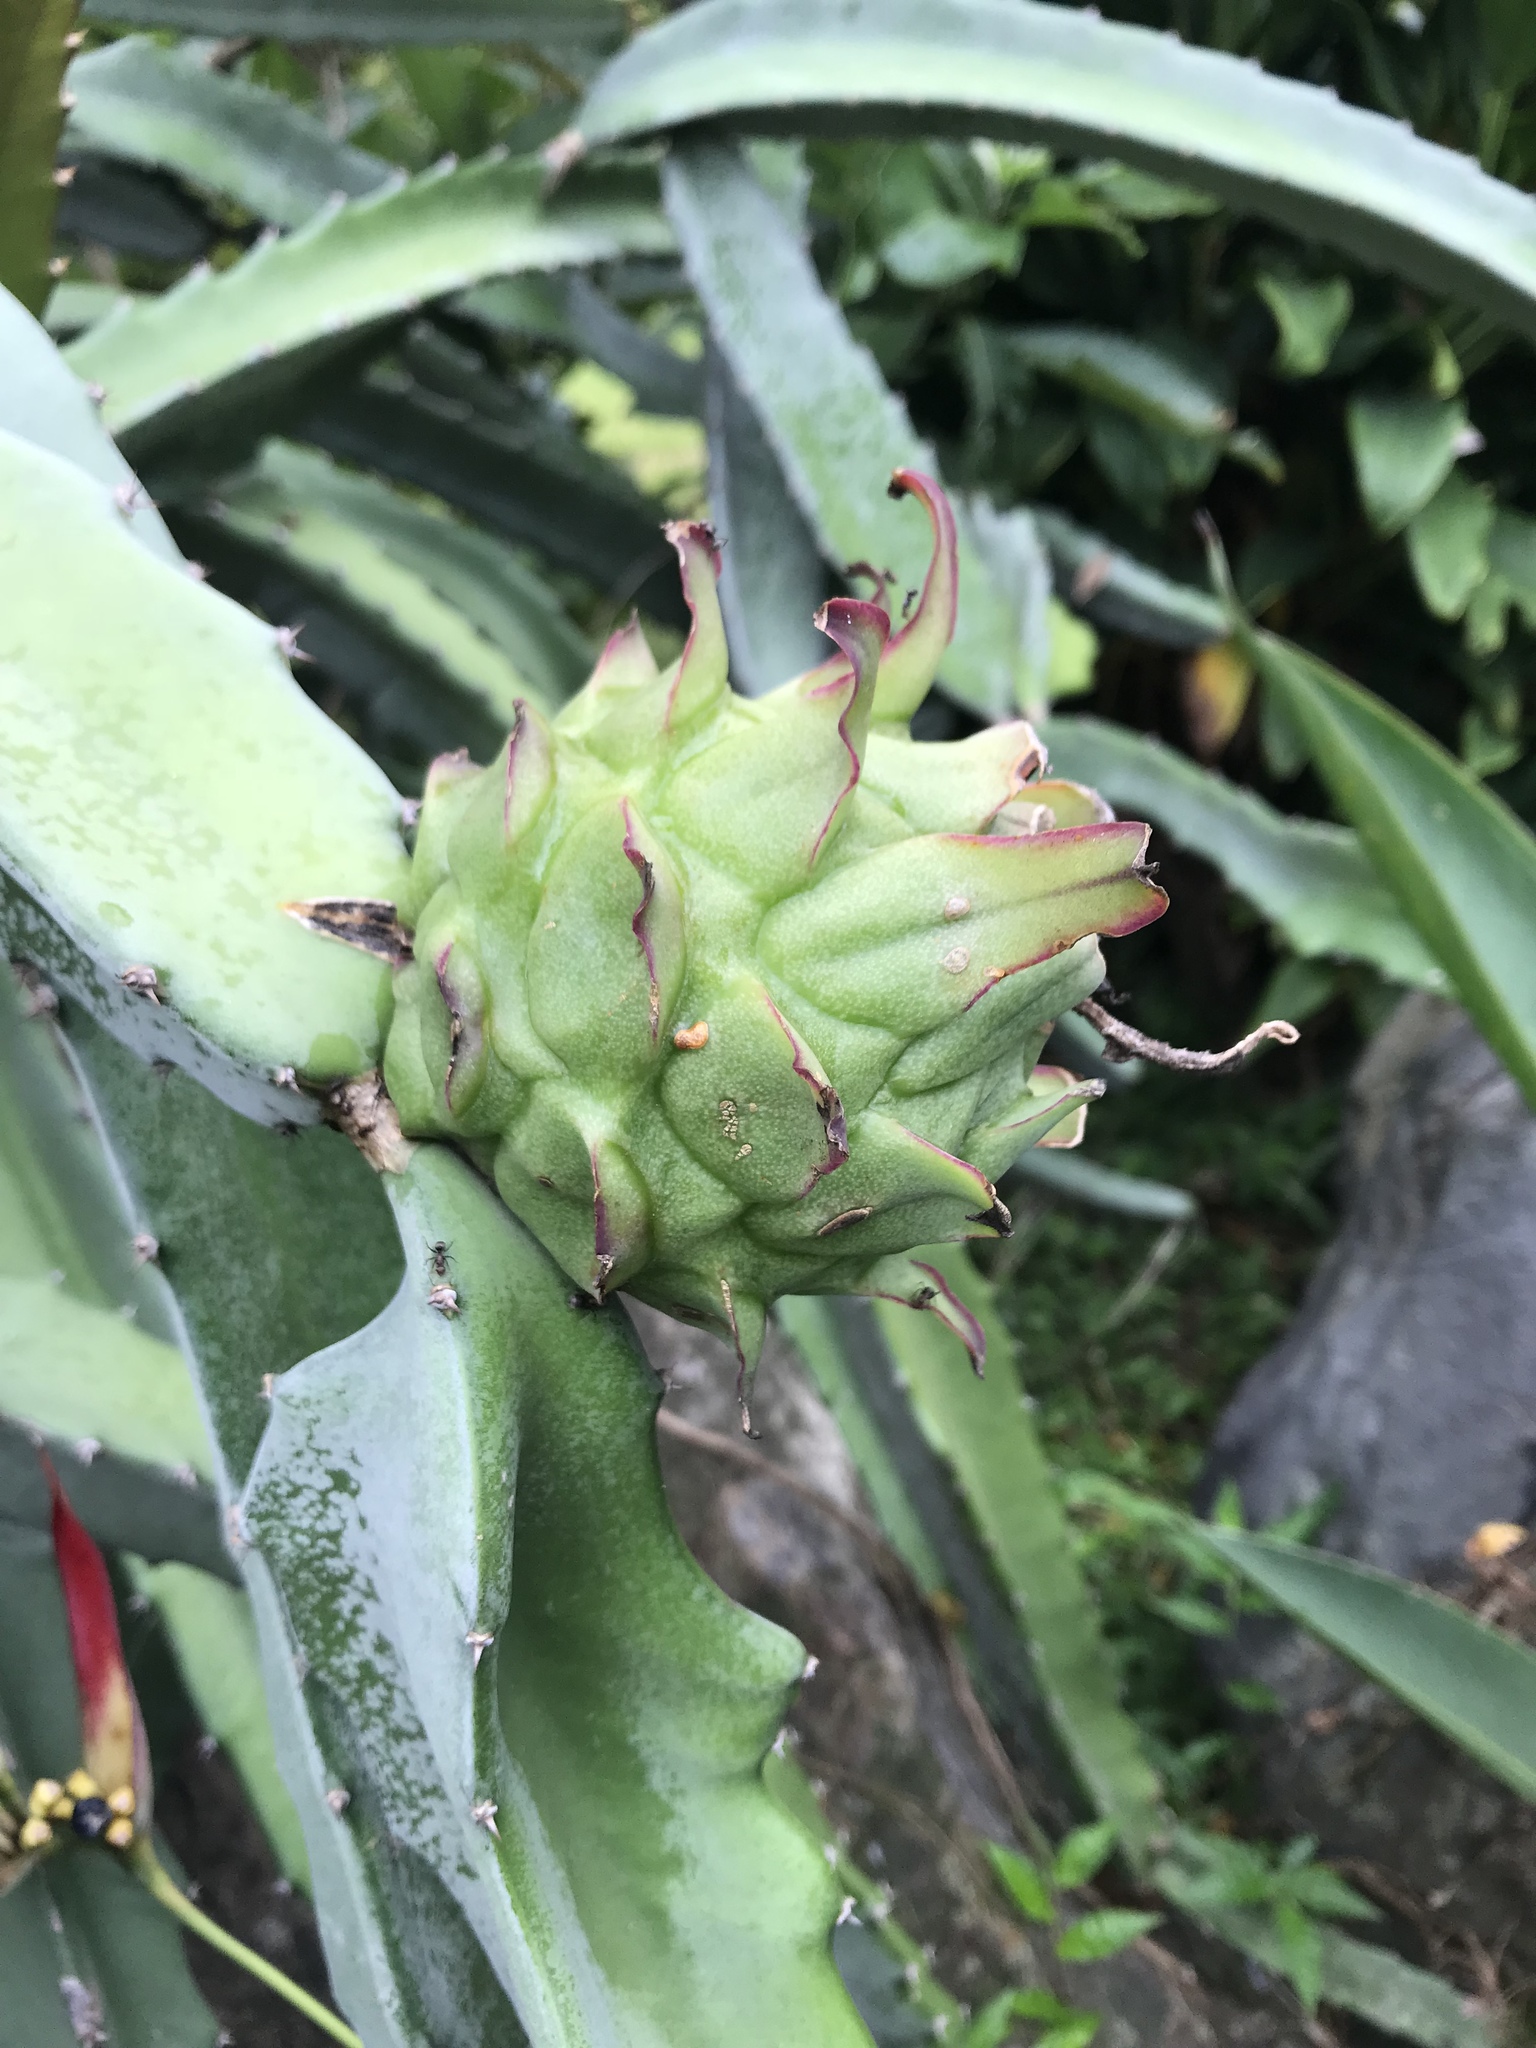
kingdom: Plantae
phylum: Tracheophyta
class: Magnoliopsida
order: Caryophyllales
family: Cactaceae
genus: Selenicereus
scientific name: Selenicereus costaricensis
